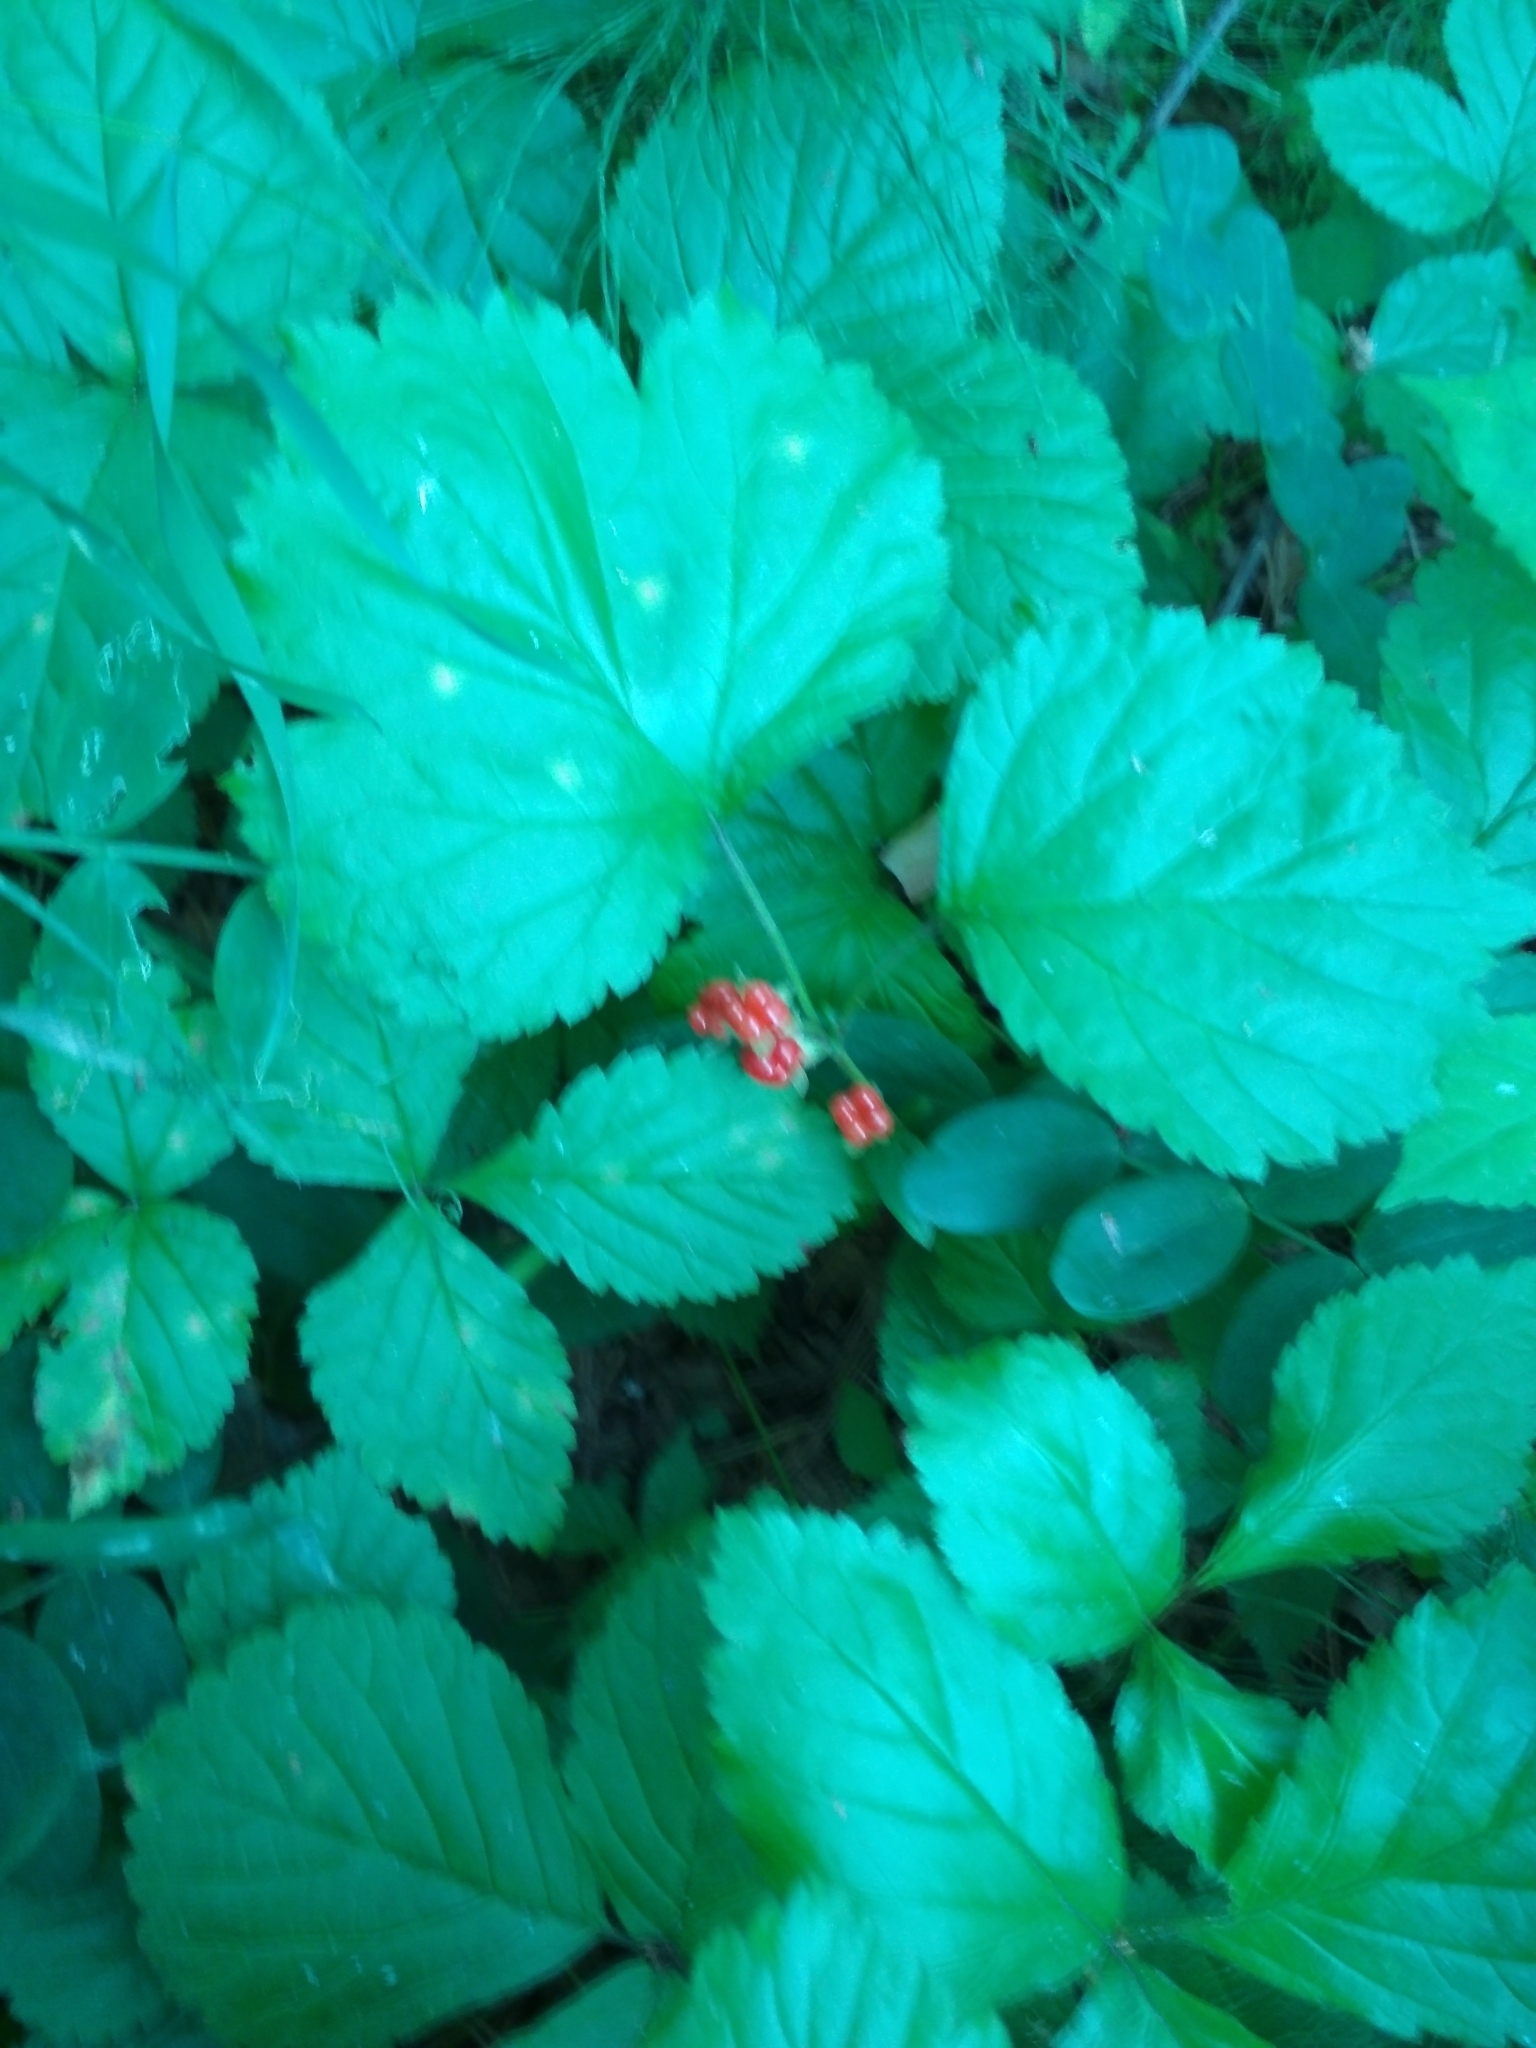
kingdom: Plantae
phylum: Tracheophyta
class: Magnoliopsida
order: Rosales
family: Rosaceae
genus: Rubus
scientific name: Rubus saxatilis
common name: Stone bramble
